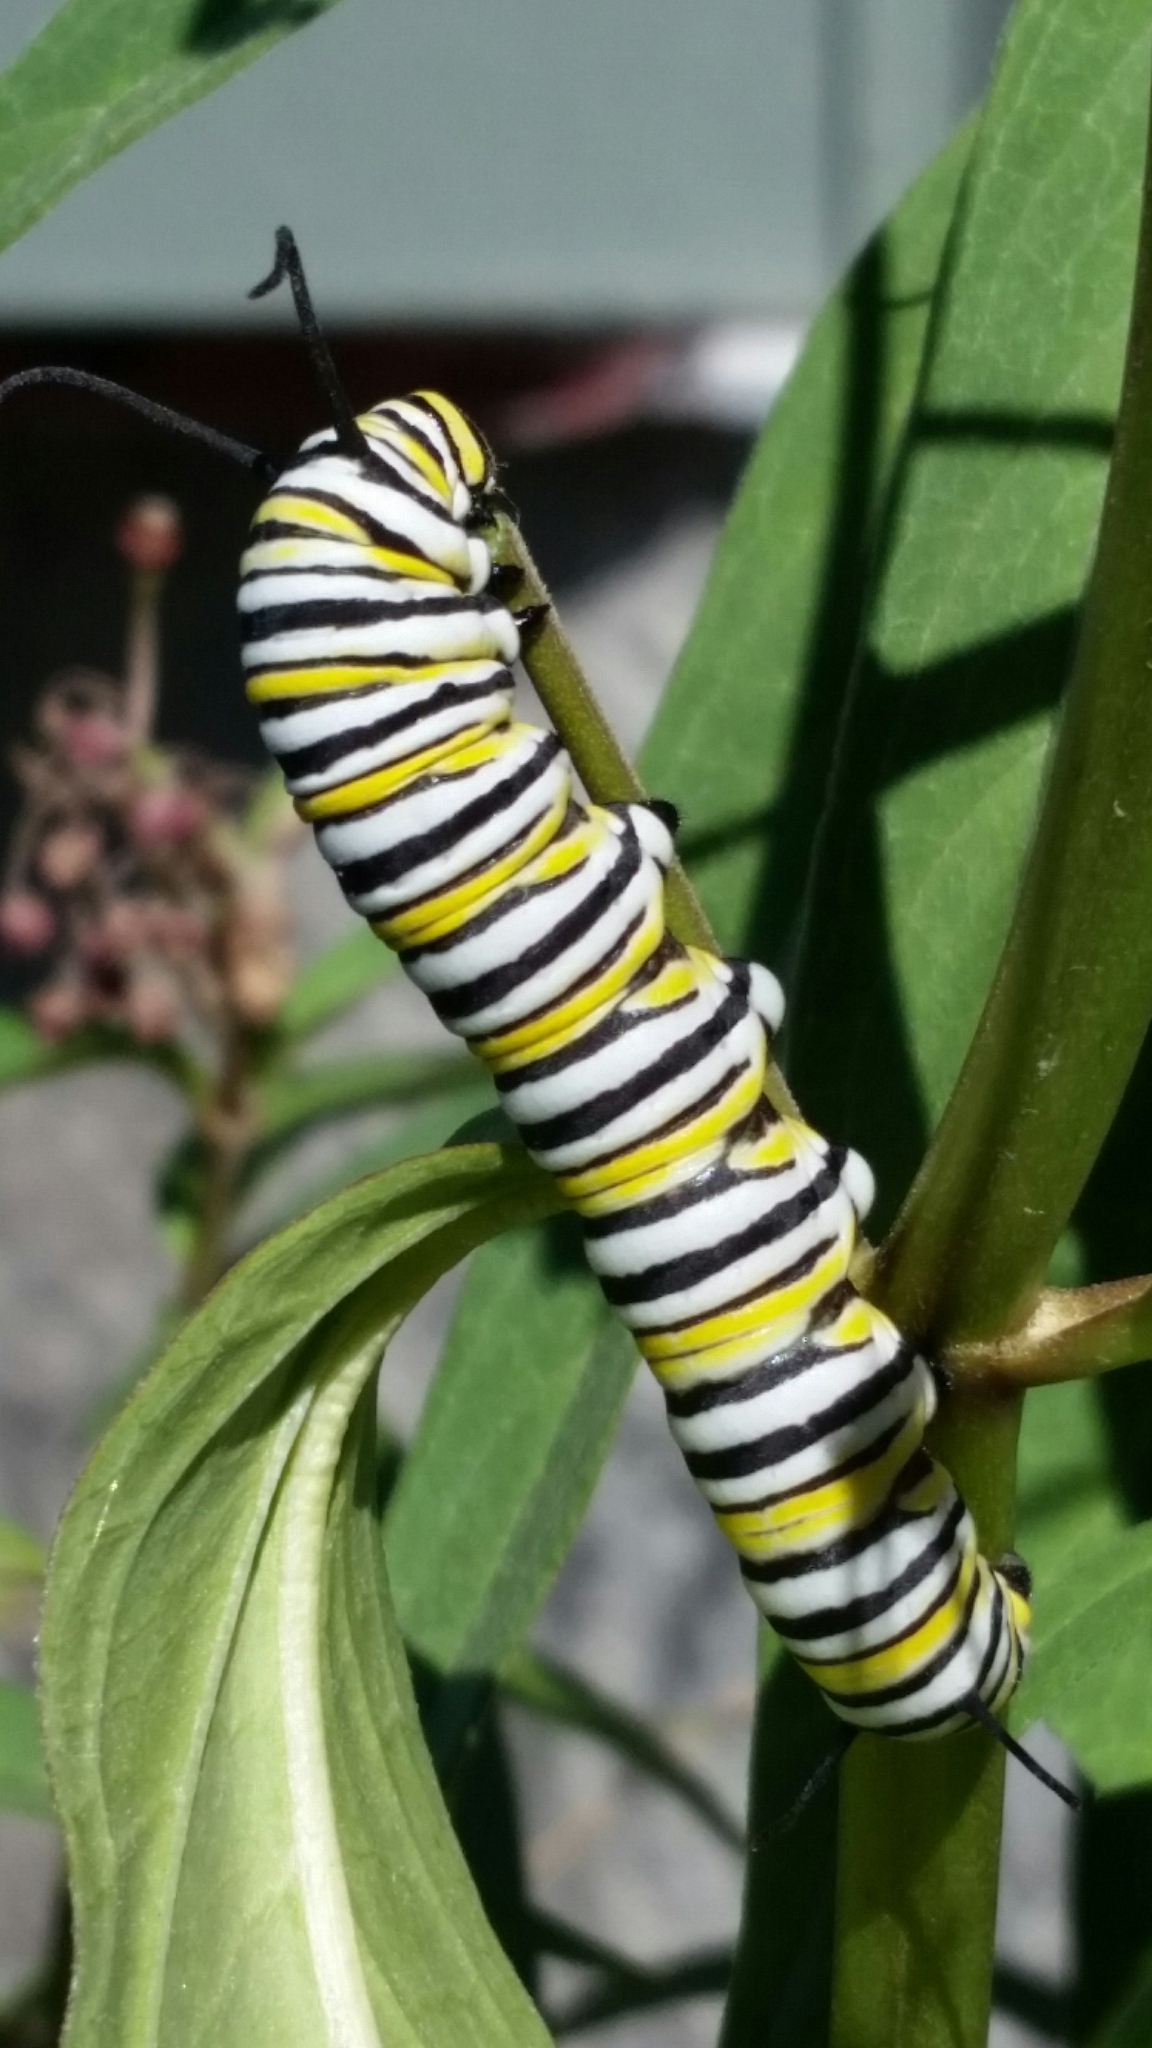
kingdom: Animalia
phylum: Arthropoda
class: Insecta
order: Lepidoptera
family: Nymphalidae
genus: Danaus
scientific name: Danaus plexippus
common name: Monarch
